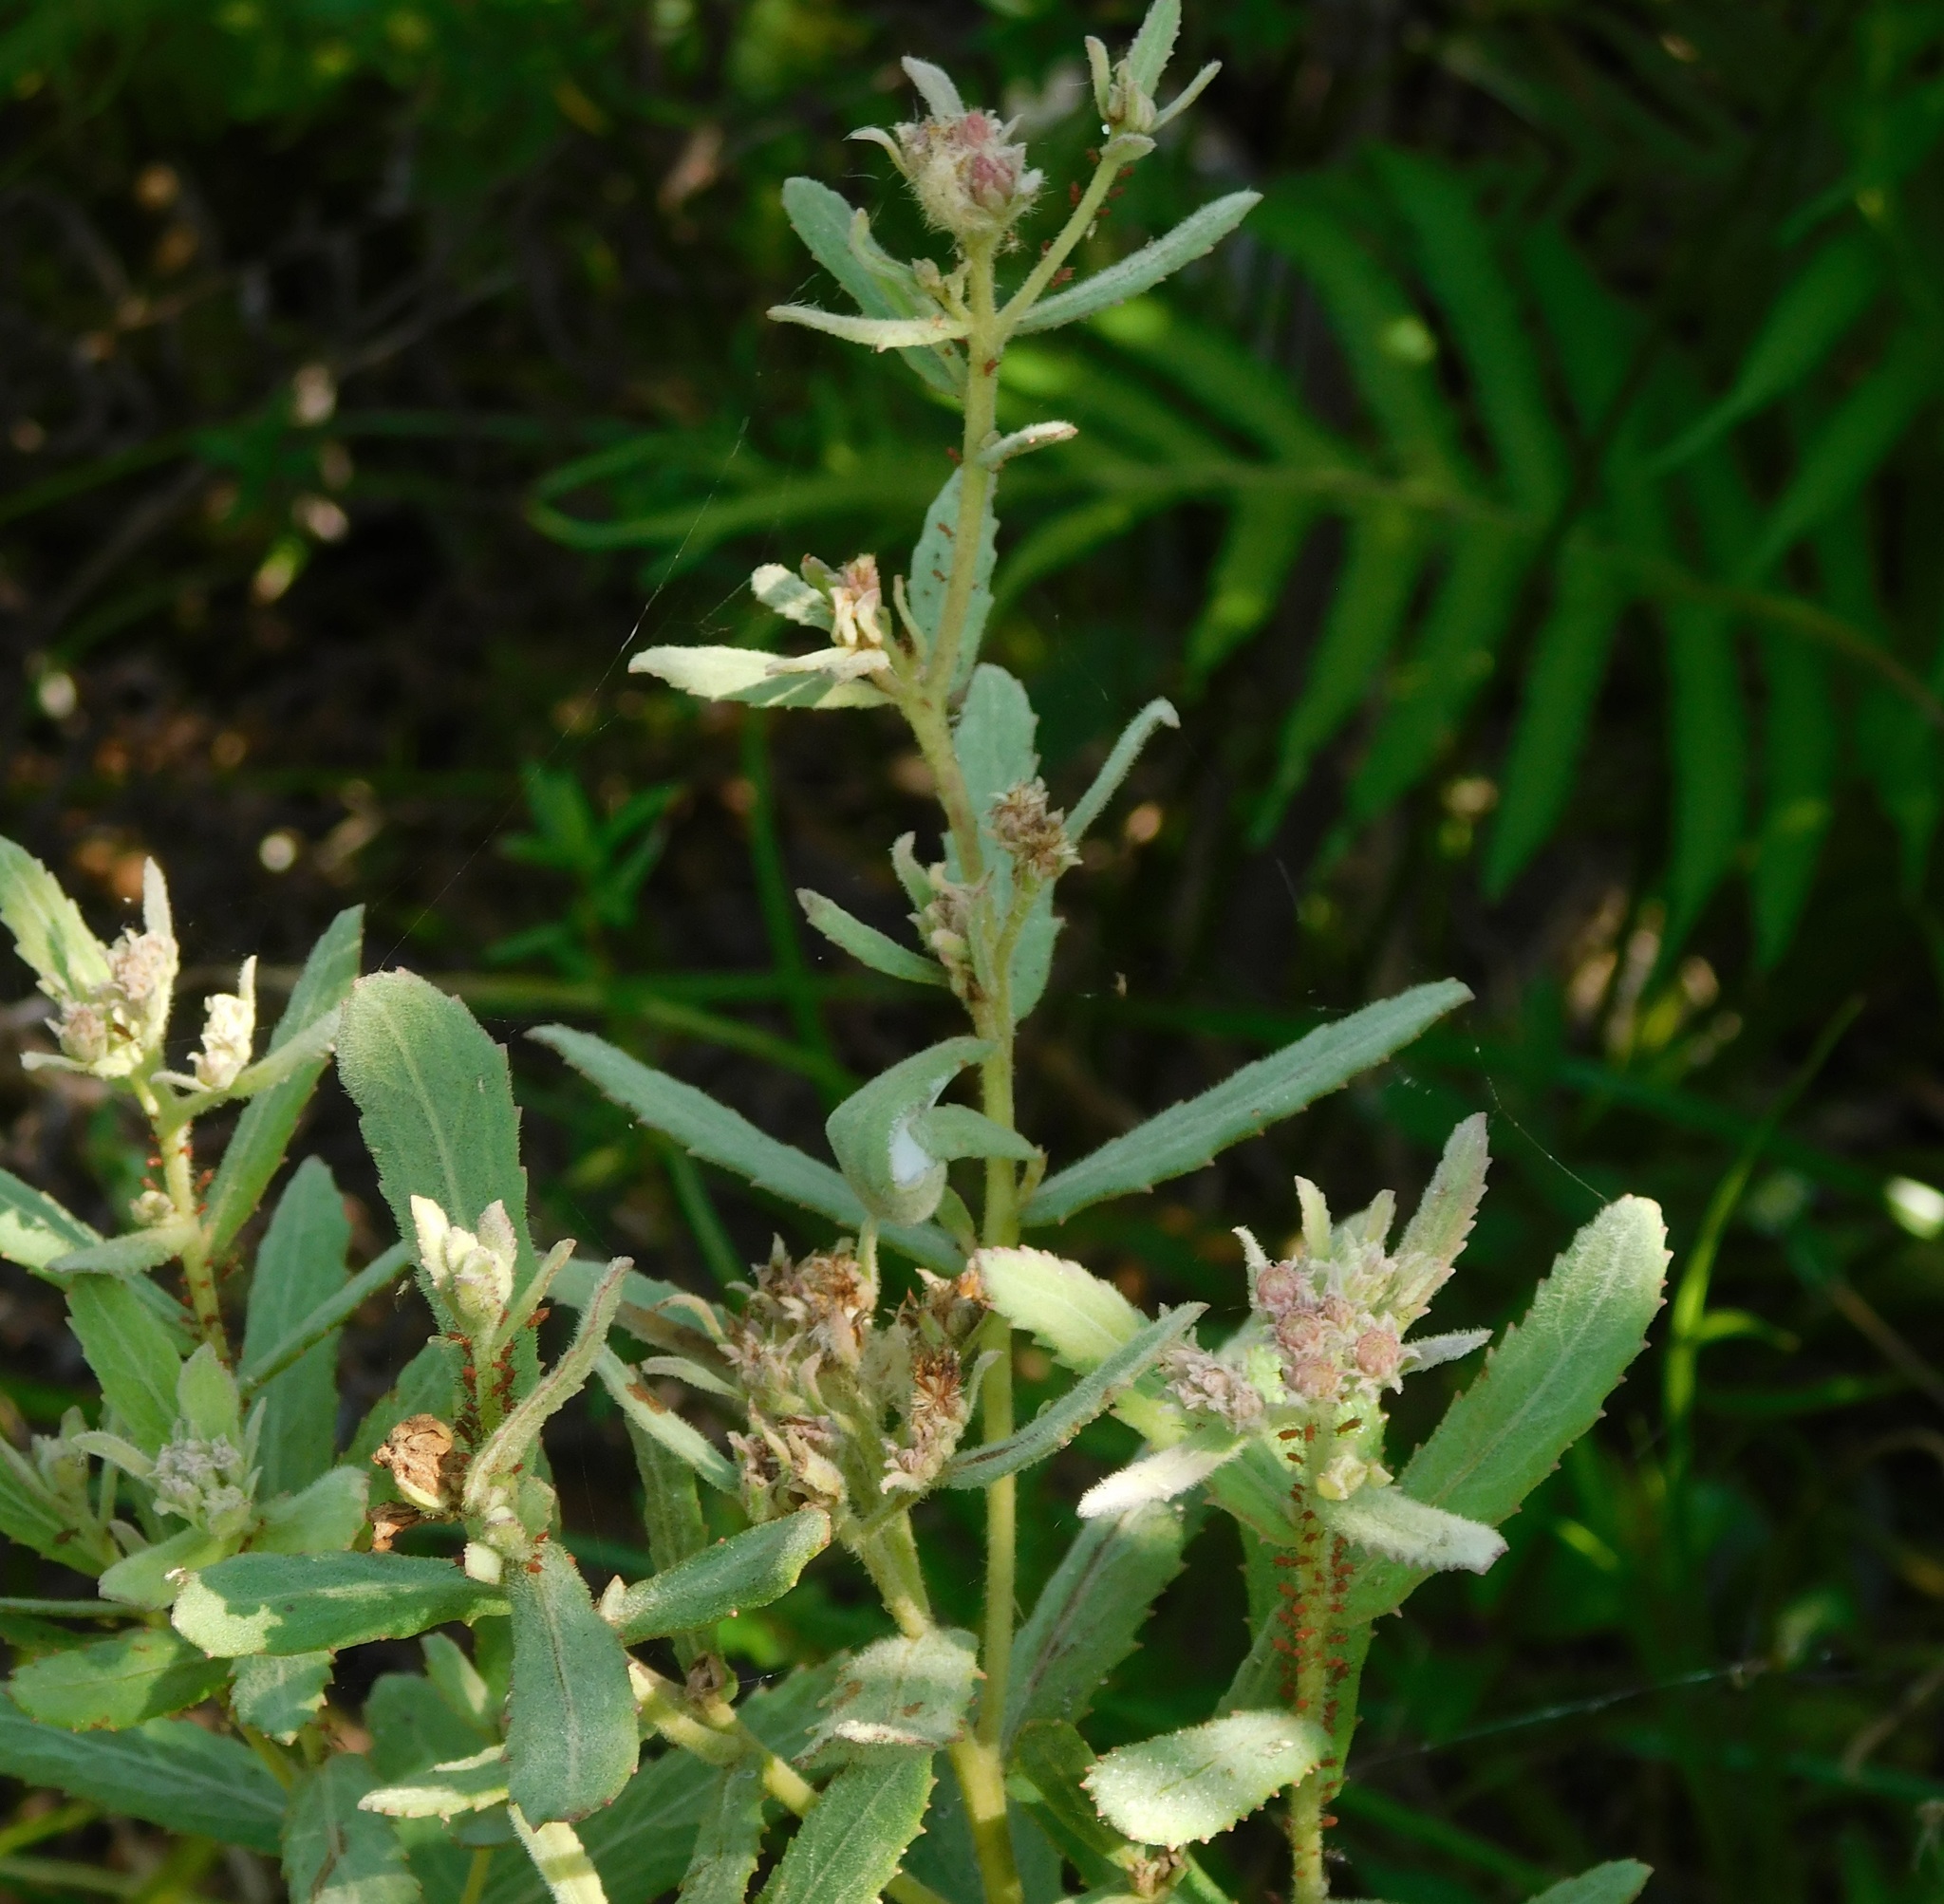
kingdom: Plantae
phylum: Tracheophyta
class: Magnoliopsida
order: Asterales
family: Asteraceae
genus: Pluchea
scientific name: Pluchea baccharis
